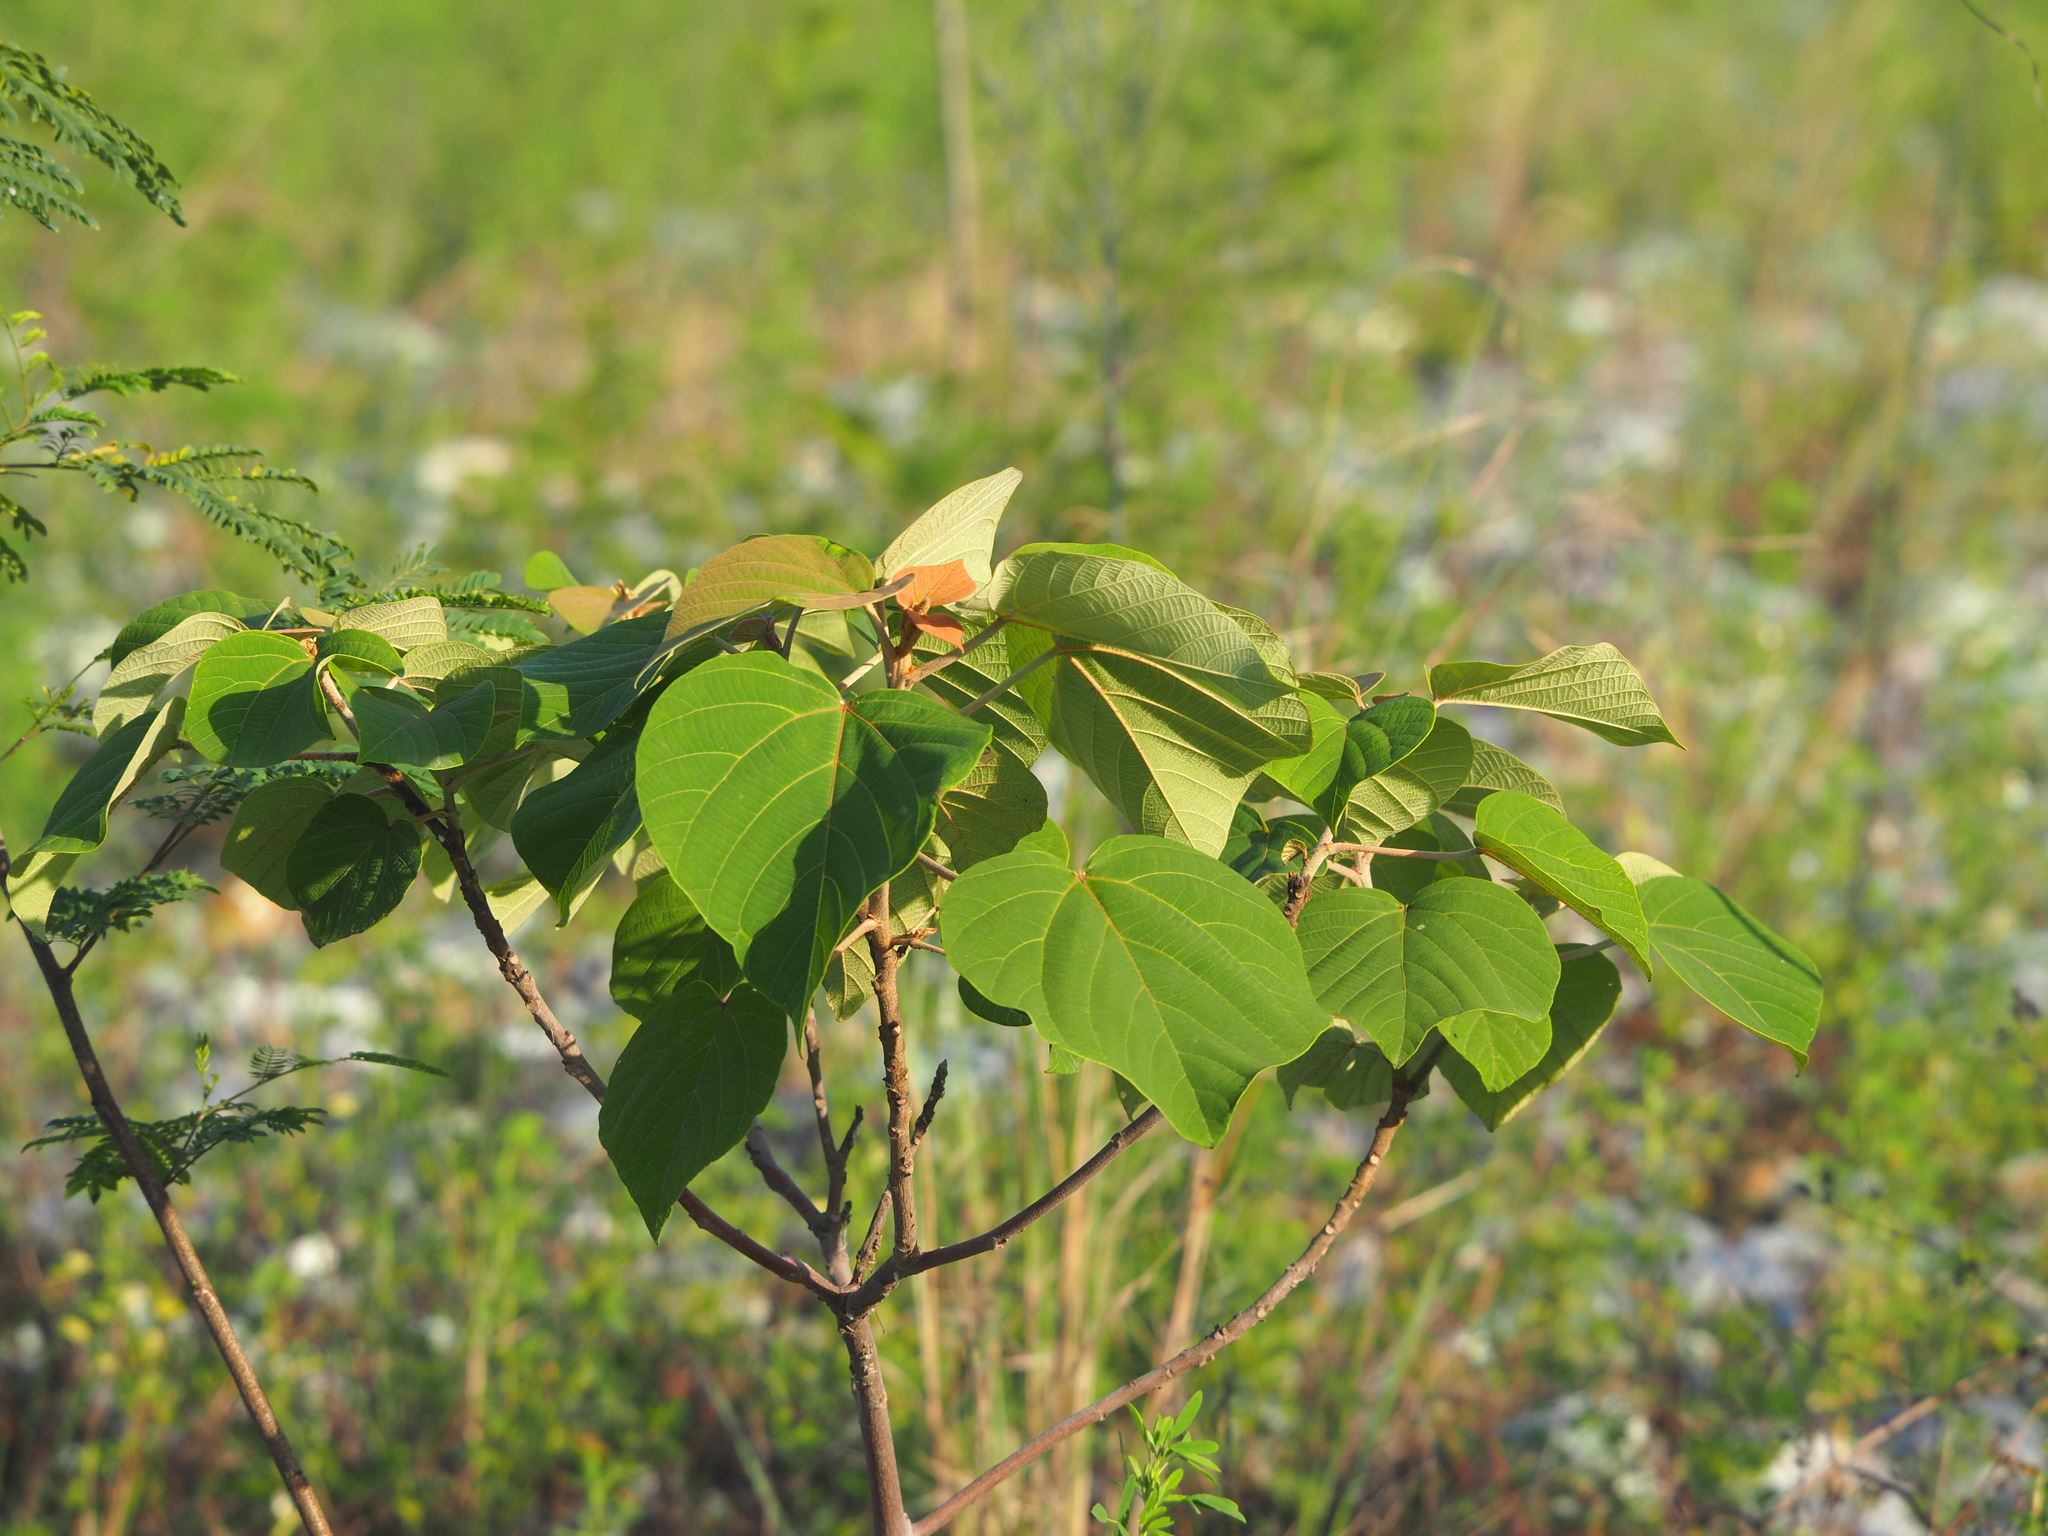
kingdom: Plantae
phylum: Tracheophyta
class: Magnoliopsida
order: Malpighiales
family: Euphorbiaceae
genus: Mallotus
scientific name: Mallotus japonicus
